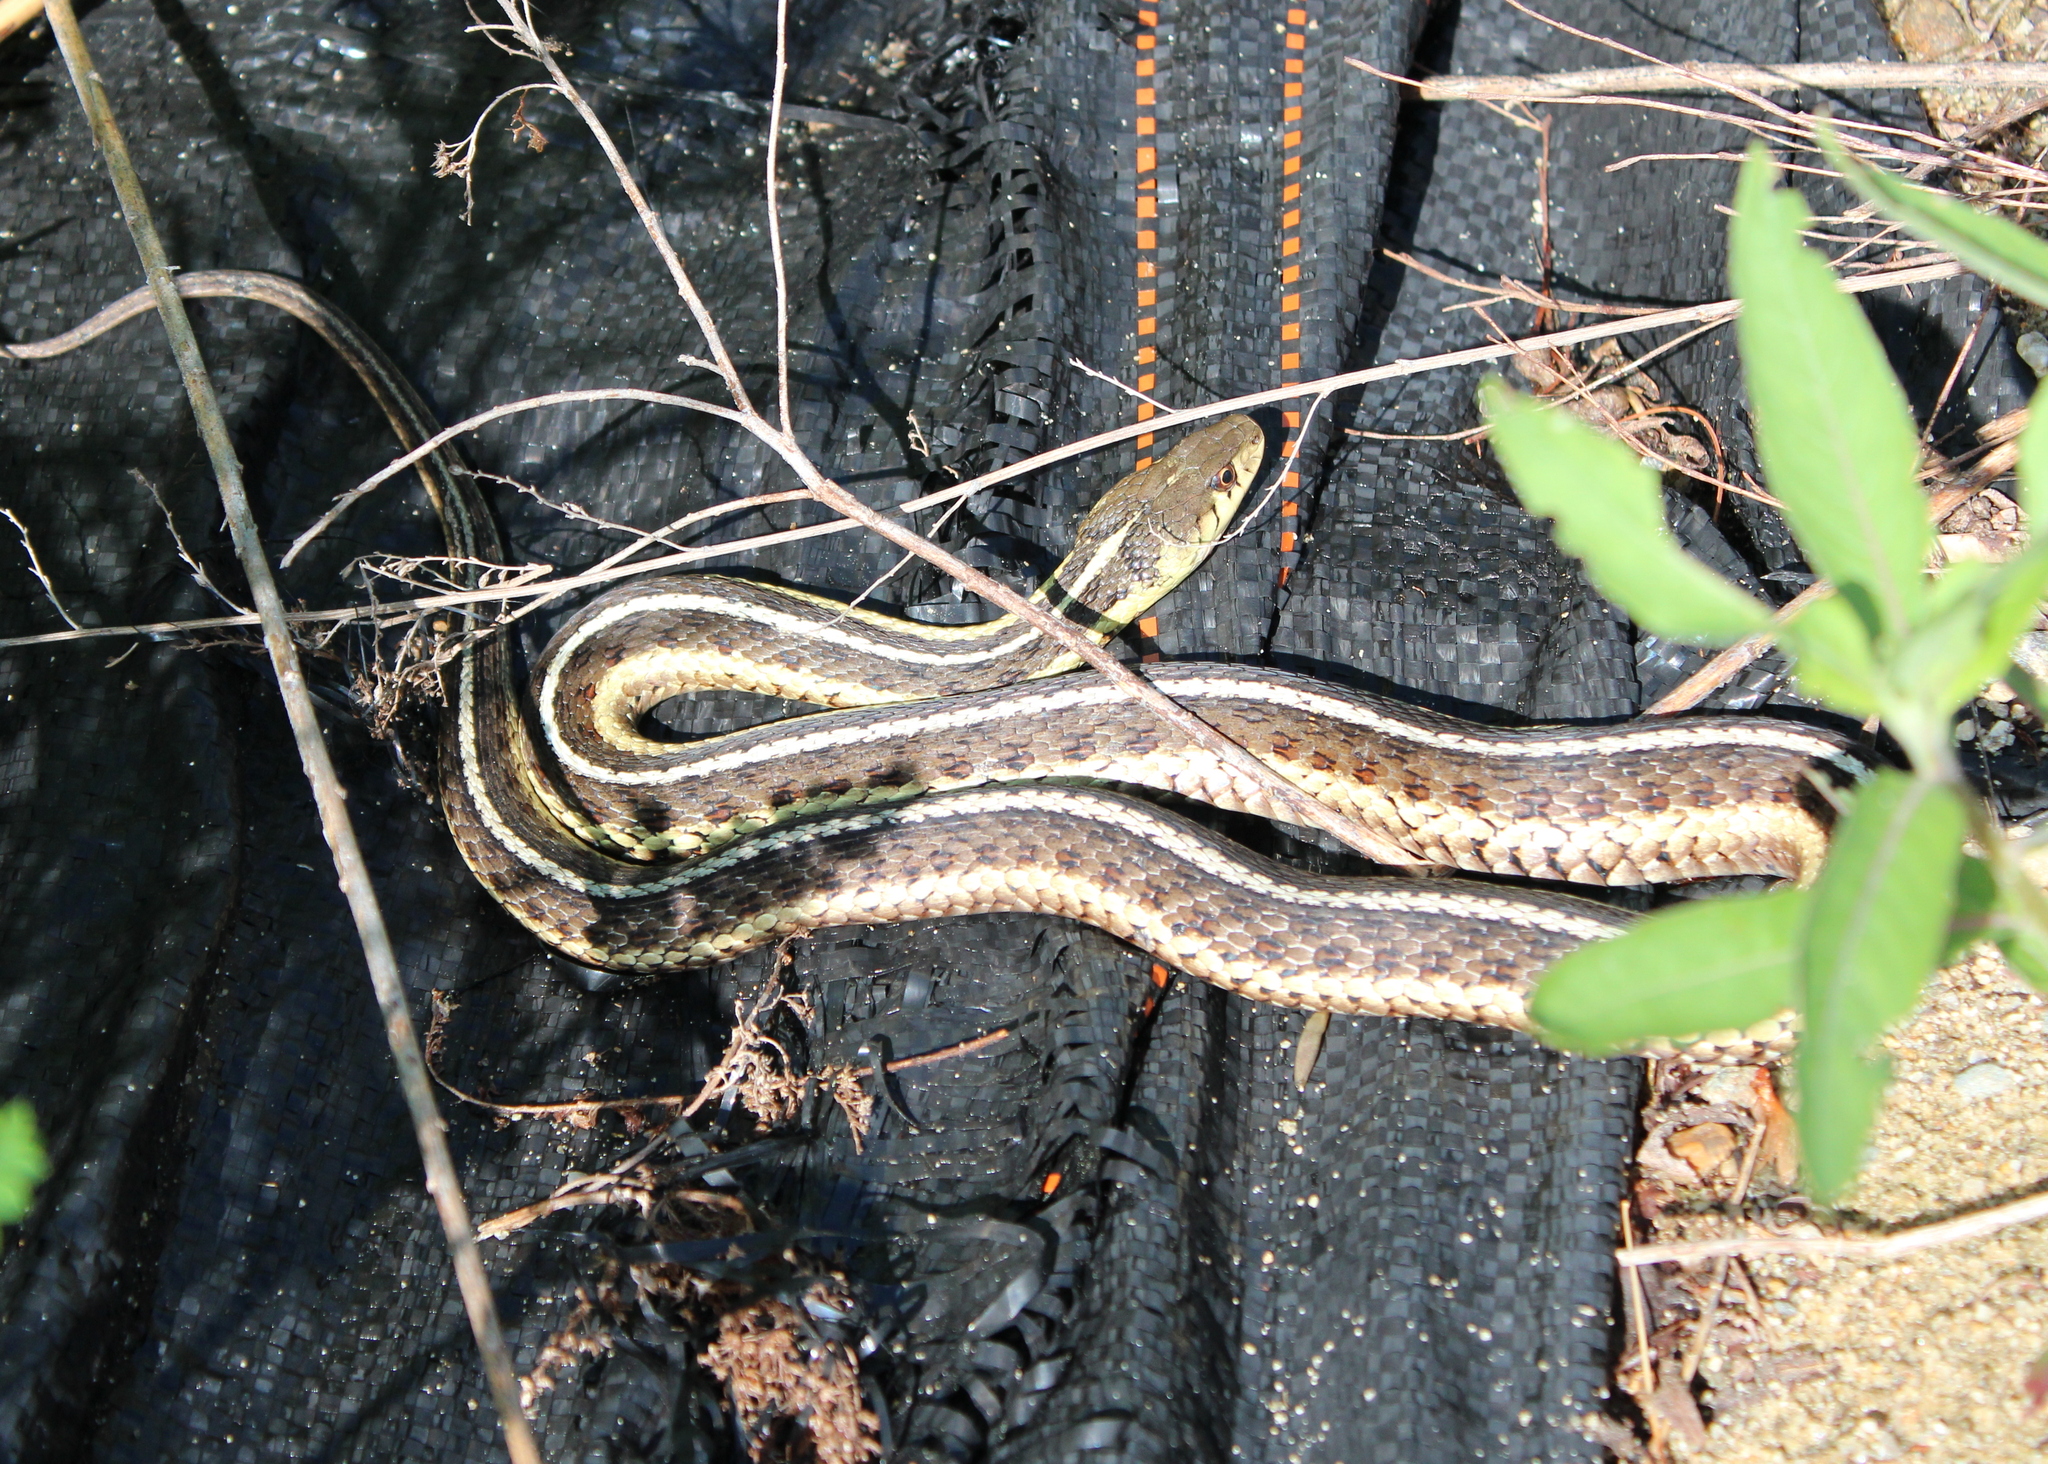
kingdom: Animalia
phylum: Chordata
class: Squamata
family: Colubridae
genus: Thamnophis
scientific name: Thamnophis sirtalis
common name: Common garter snake
